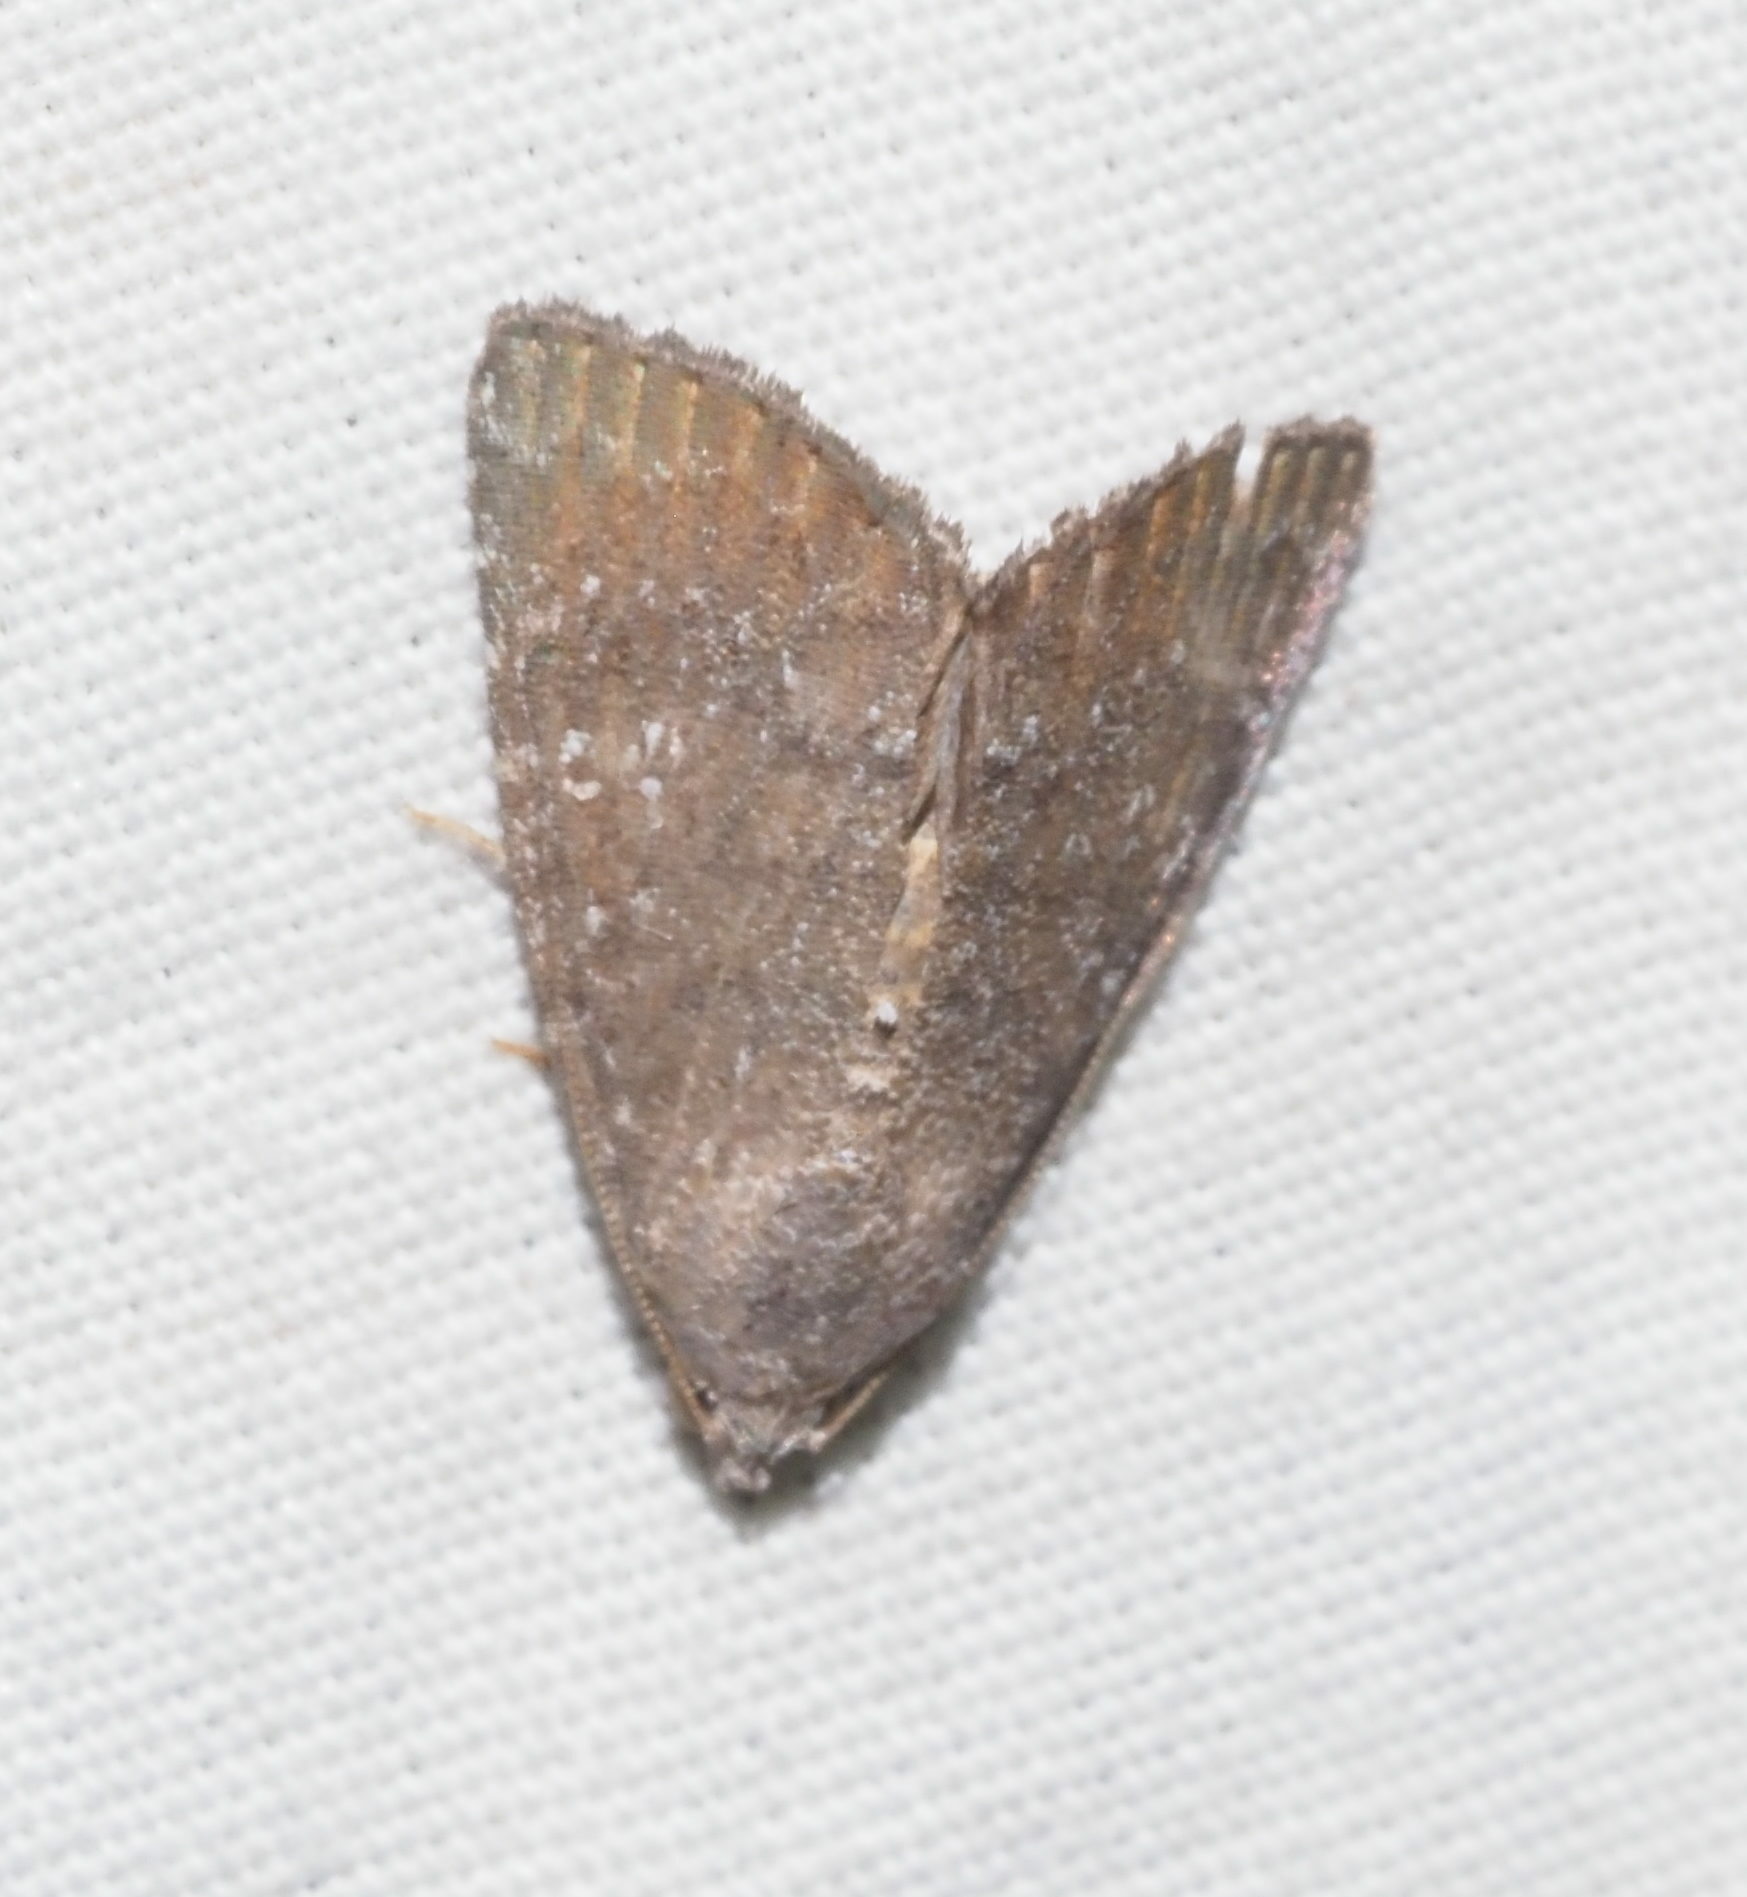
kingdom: Animalia
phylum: Arthropoda
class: Insecta
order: Lepidoptera
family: Noctuidae
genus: Amyna
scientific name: Amyna natalis
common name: Iiima moth
